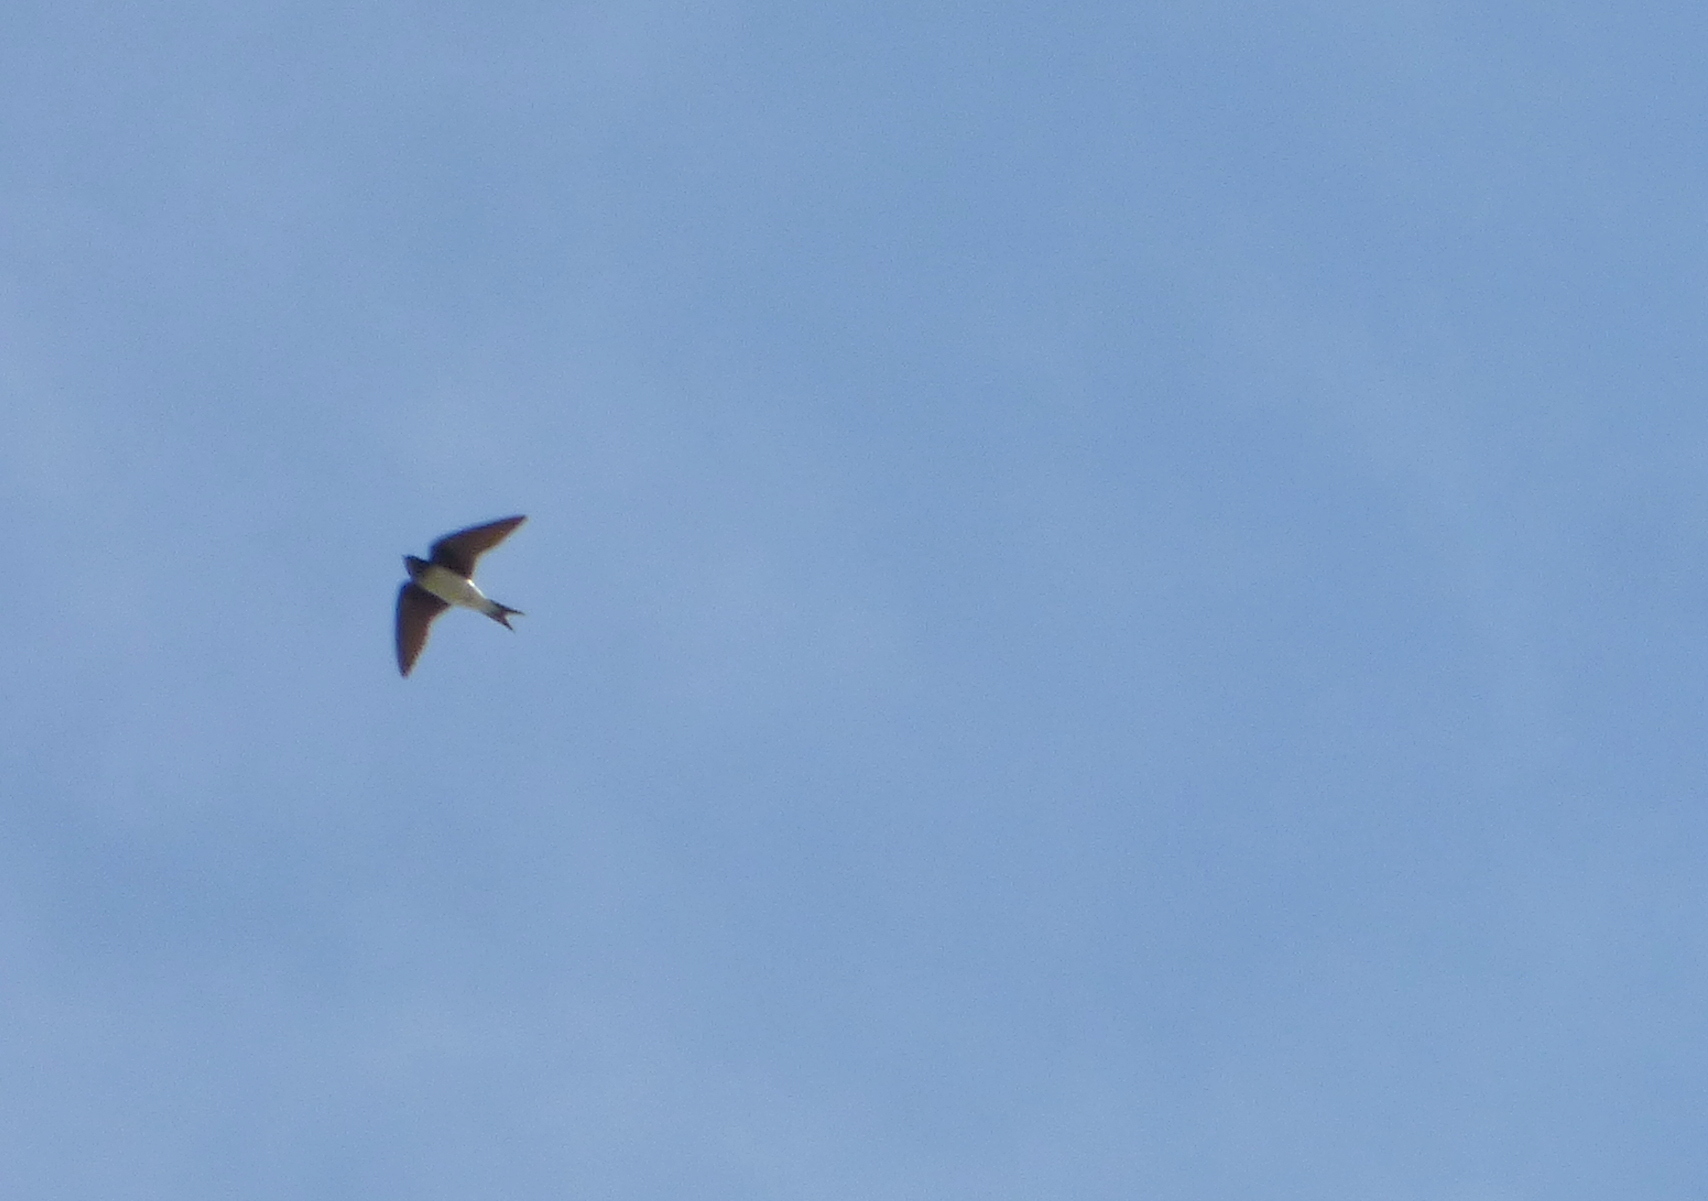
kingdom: Animalia
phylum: Chordata
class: Aves
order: Passeriformes
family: Hirundinidae
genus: Progne
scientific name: Progne chalybea
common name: Grey-breasted martin
